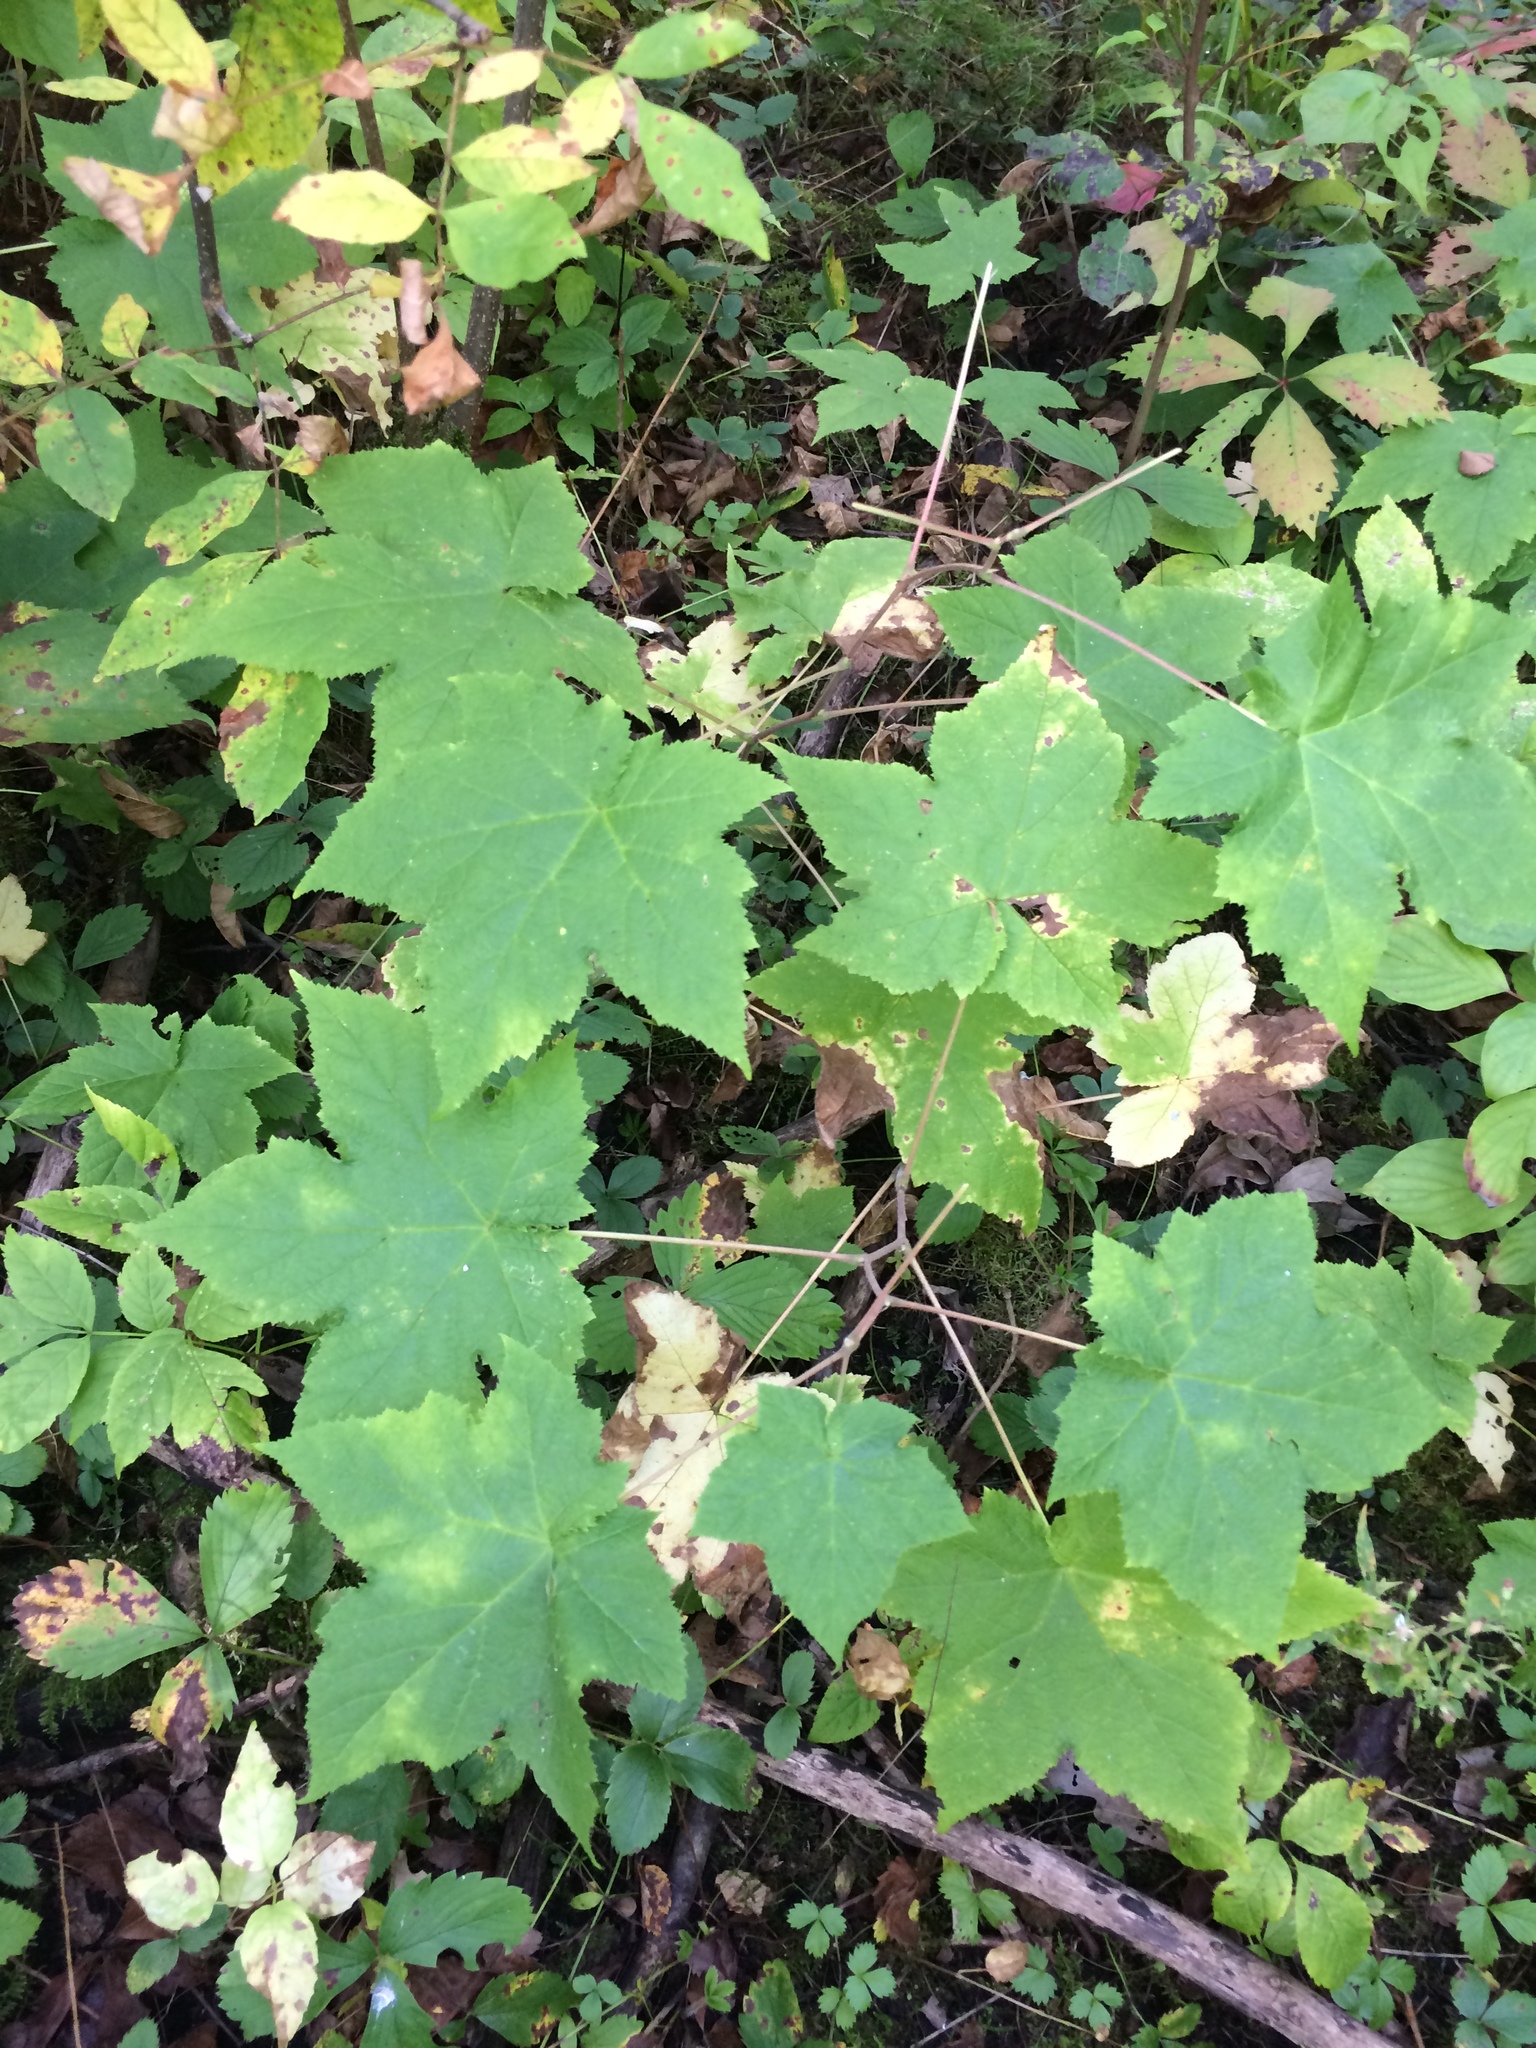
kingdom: Plantae
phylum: Tracheophyta
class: Magnoliopsida
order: Rosales
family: Rosaceae
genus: Rubus
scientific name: Rubus odoratus
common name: Purple-flowered raspberry
